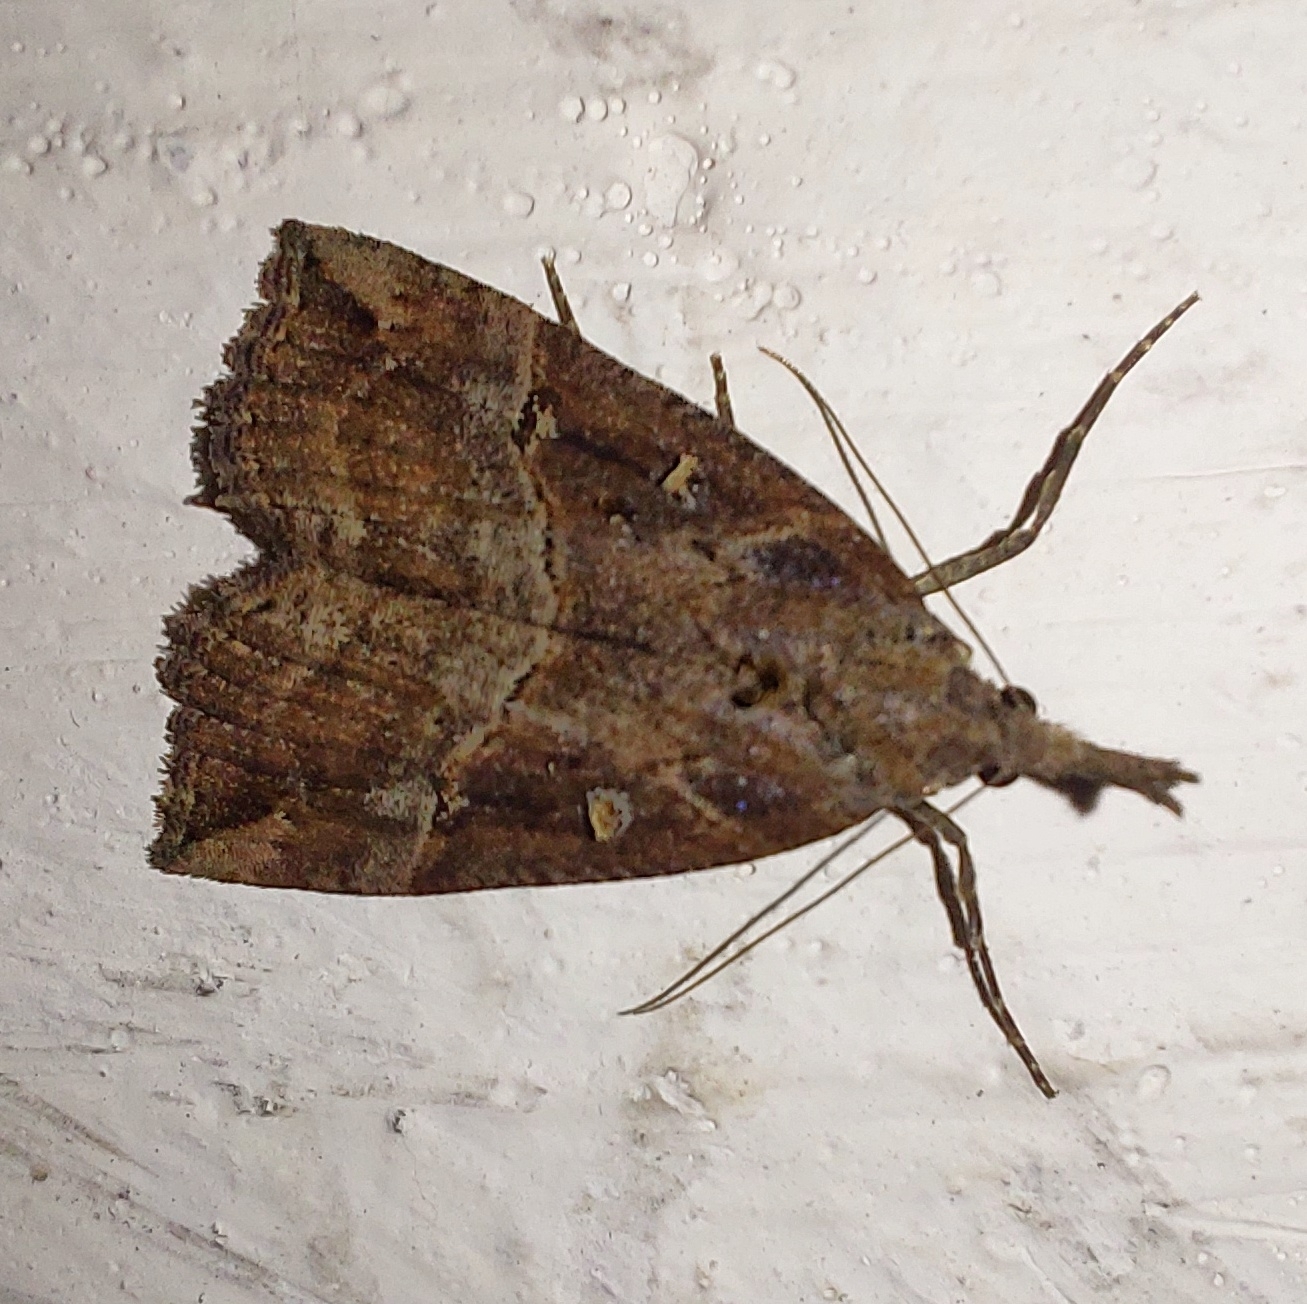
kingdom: Animalia
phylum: Arthropoda
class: Insecta
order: Lepidoptera
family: Erebidae
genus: Hypena
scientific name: Hypena rostralis
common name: Buttoned snout
